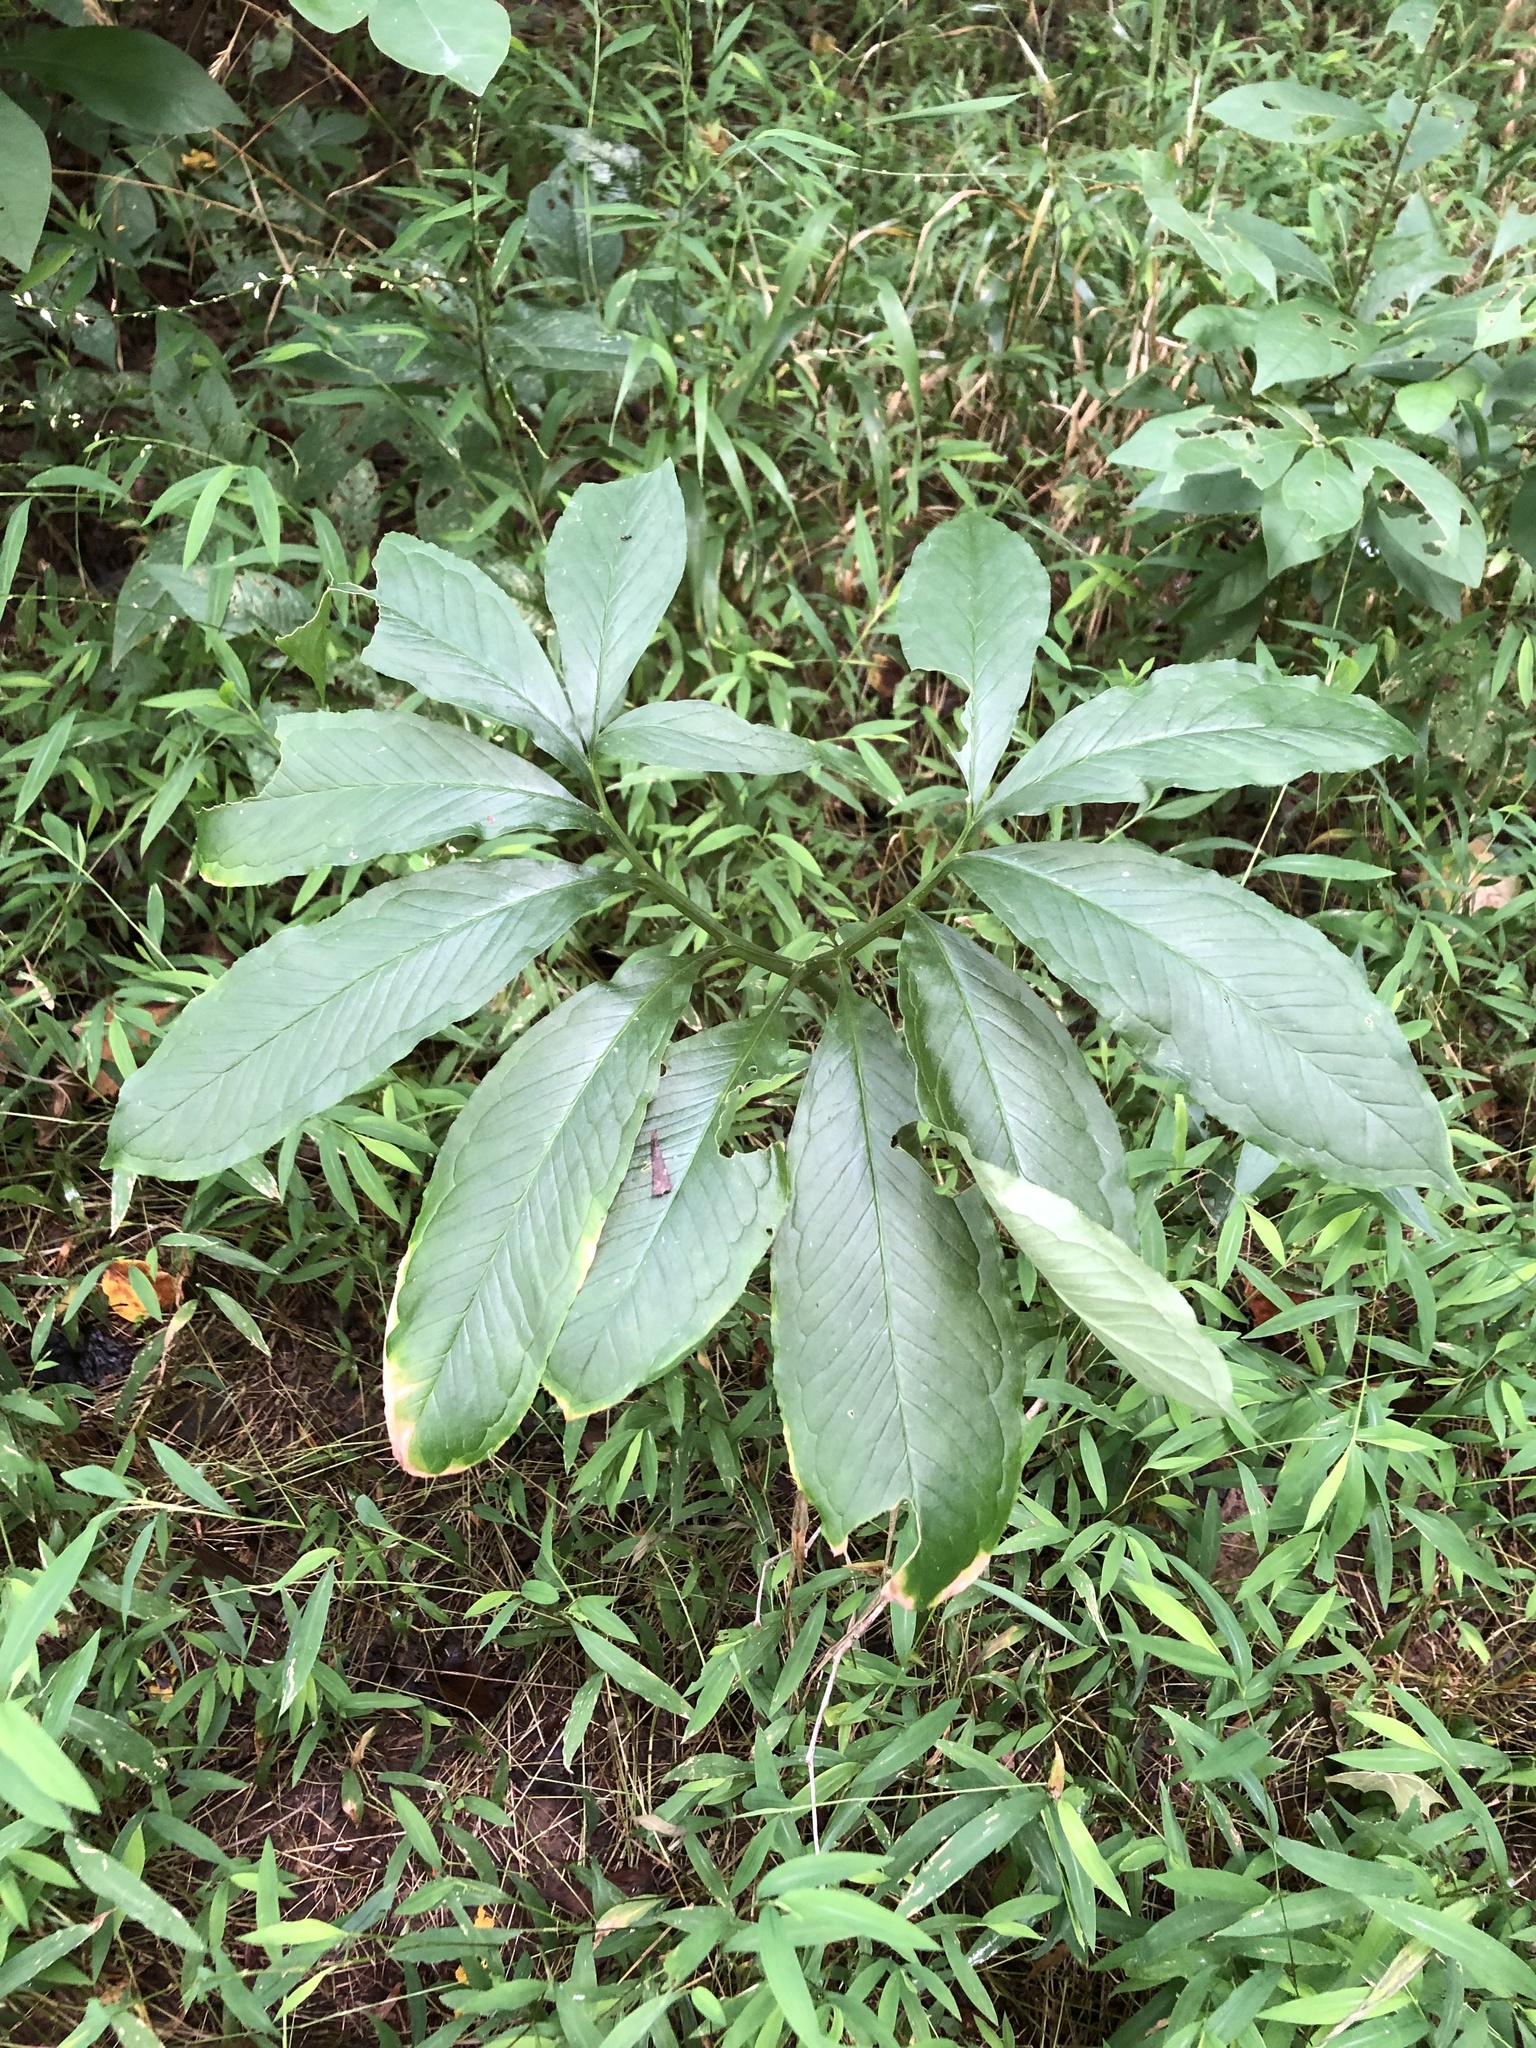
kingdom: Plantae
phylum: Tracheophyta
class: Liliopsida
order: Alismatales
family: Araceae
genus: Arisaema
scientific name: Arisaema dracontium
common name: Dragon-arum
